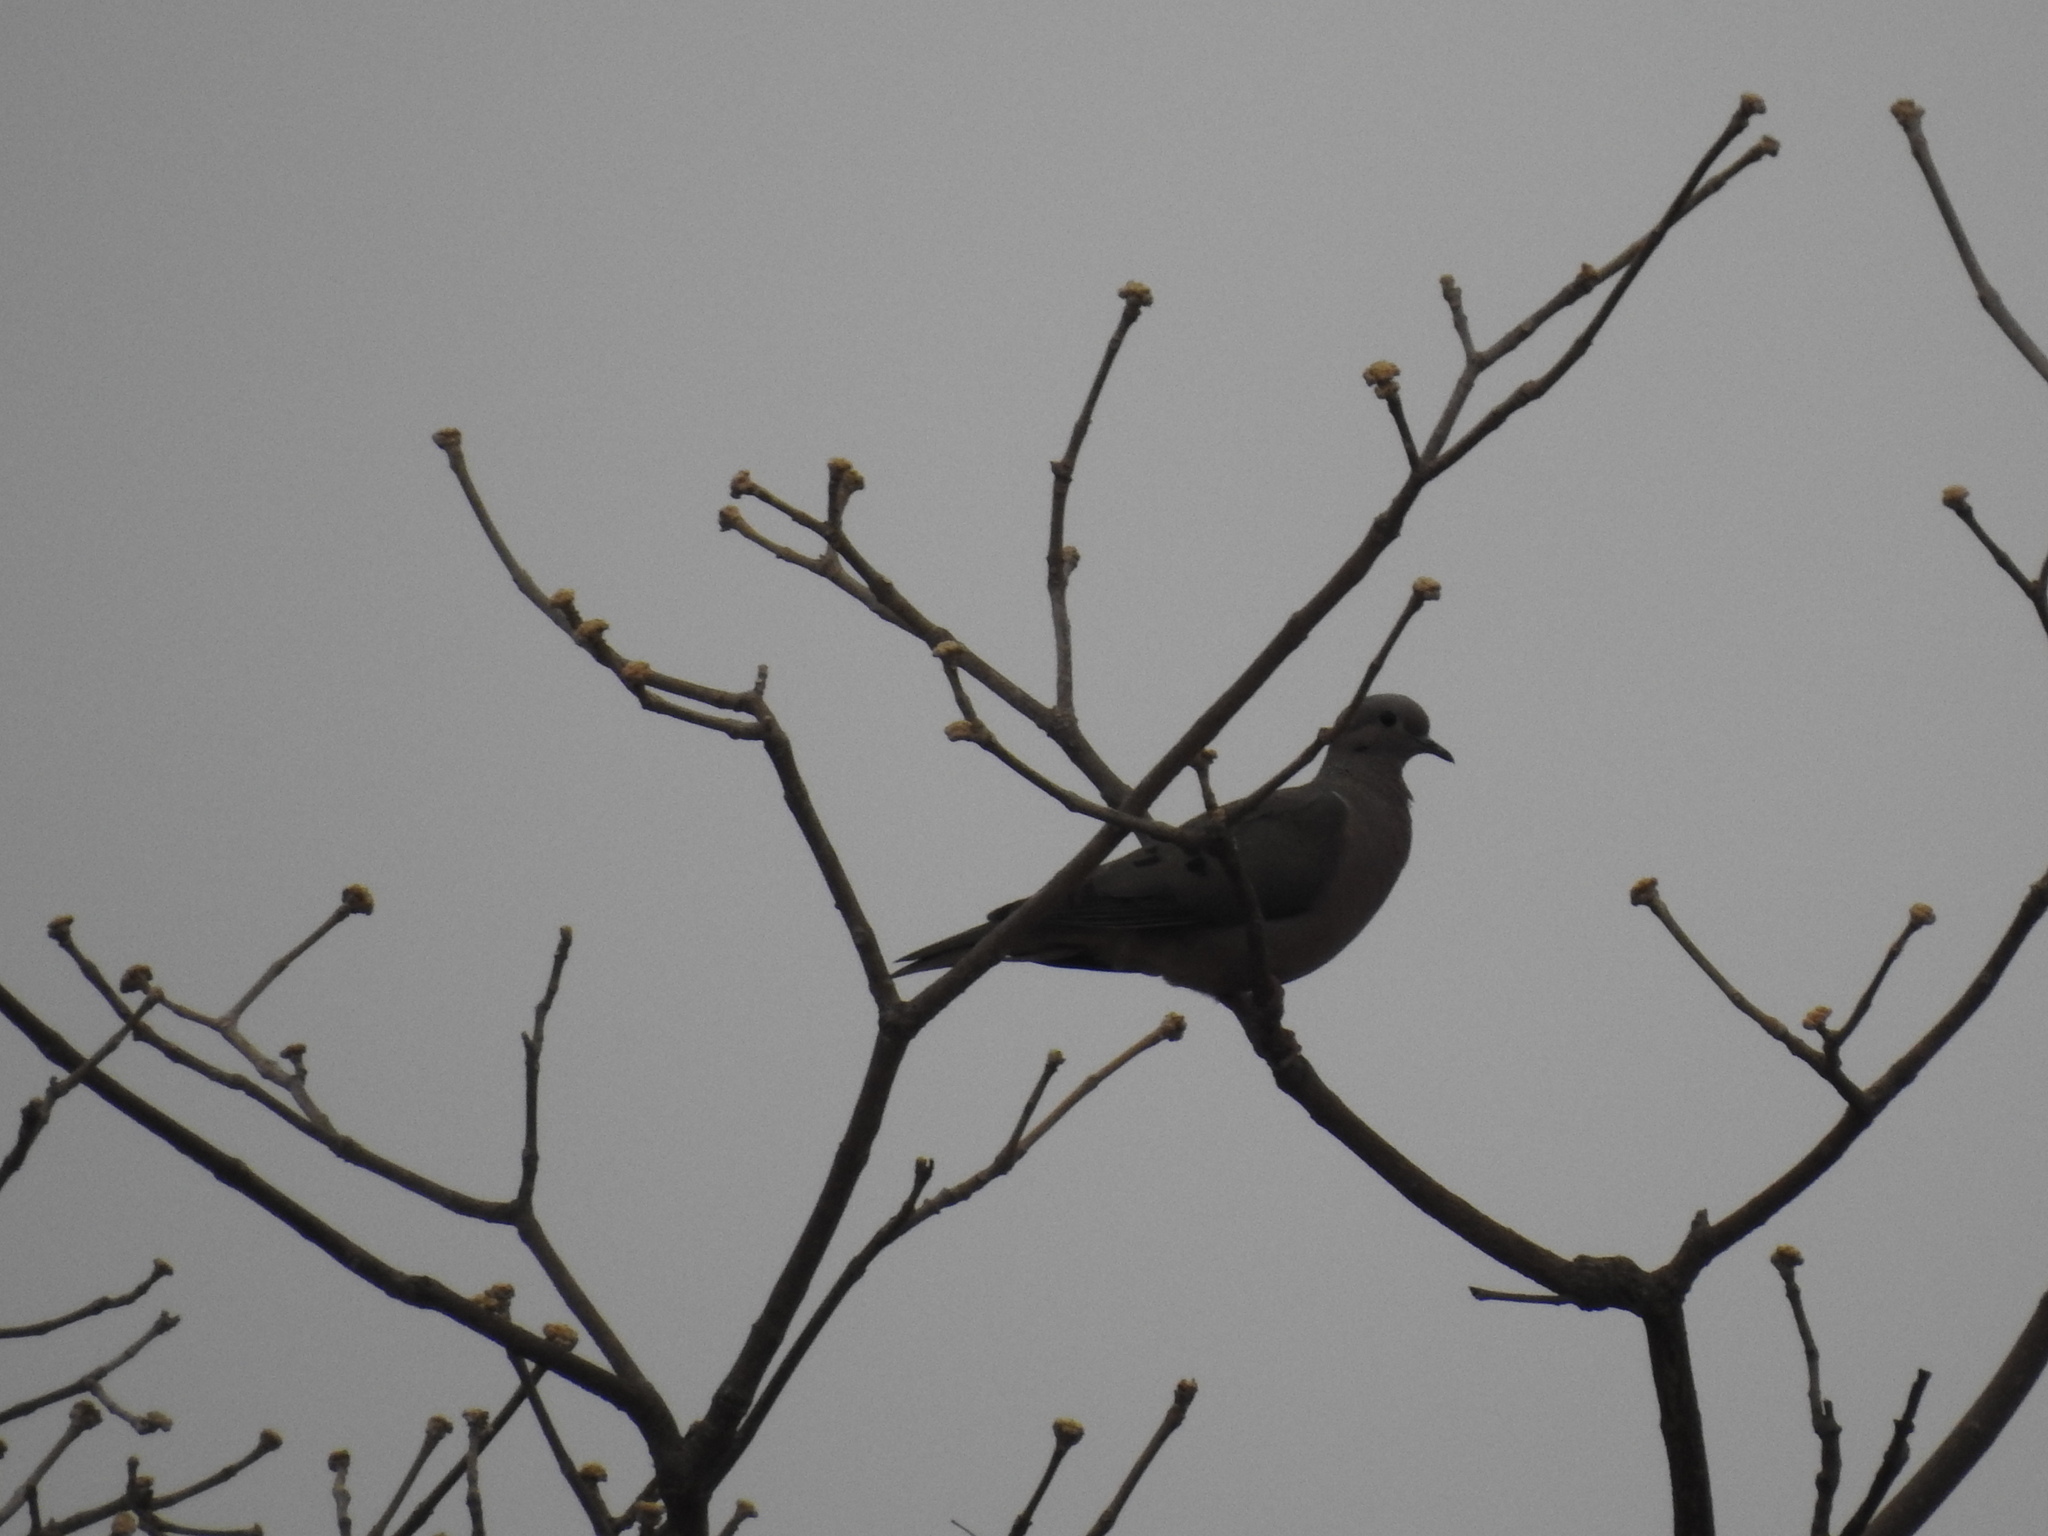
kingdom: Animalia
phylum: Chordata
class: Aves
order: Columbiformes
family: Columbidae
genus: Zenaida
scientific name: Zenaida auriculata
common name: Eared dove
